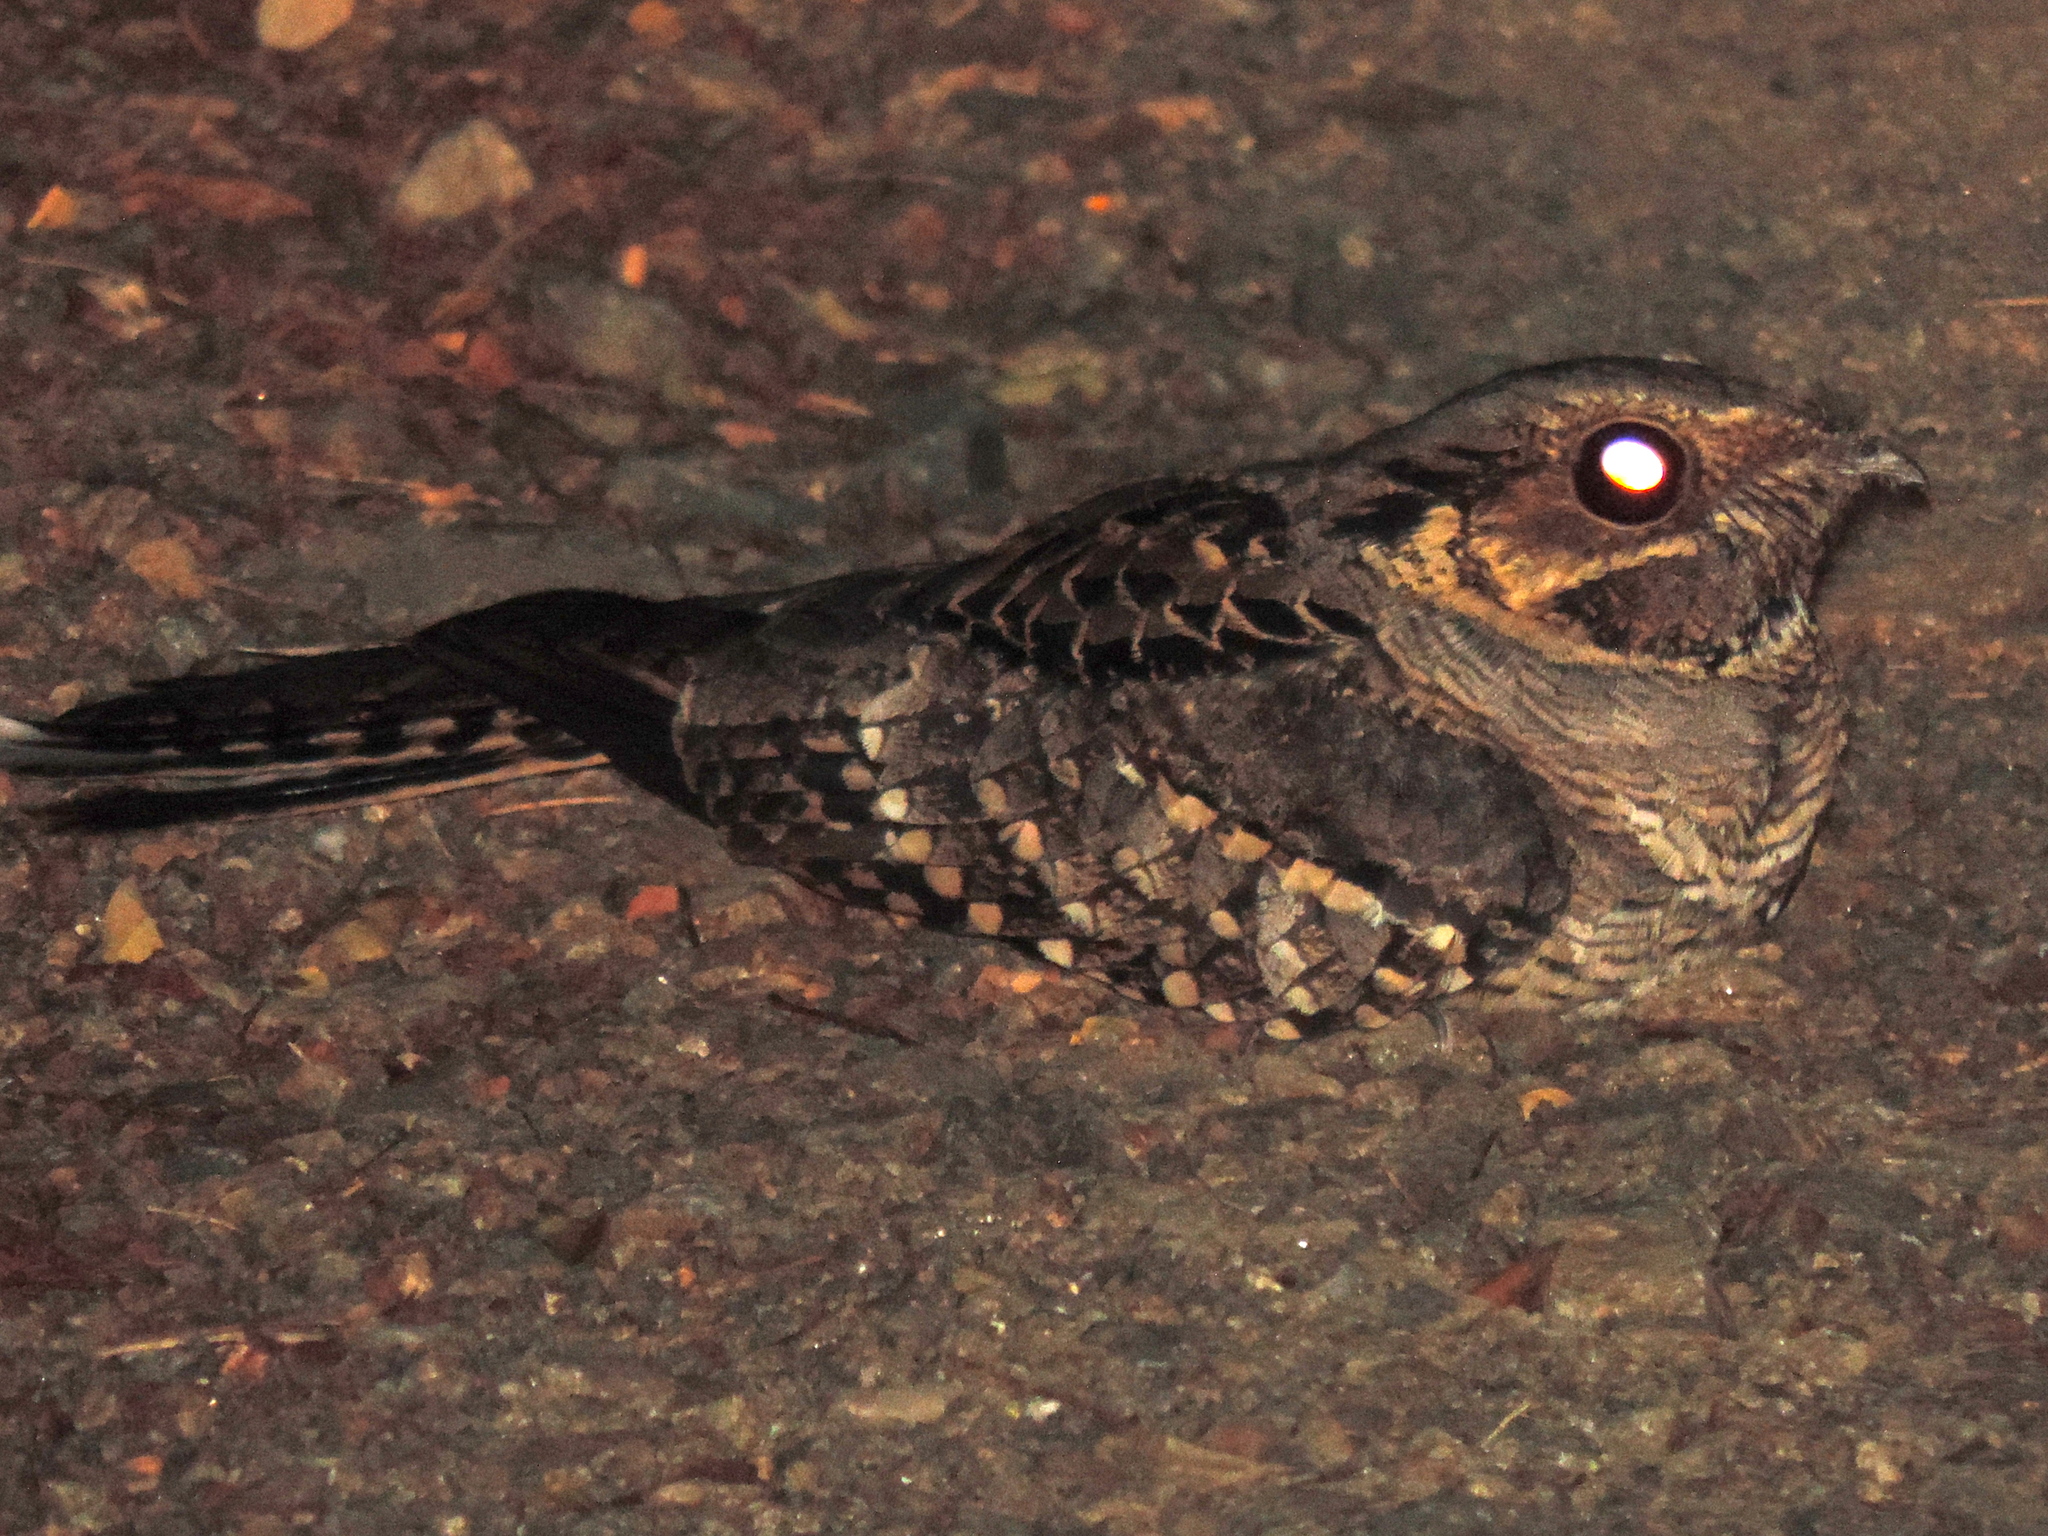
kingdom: Animalia
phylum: Chordata
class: Aves
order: Caprimulgiformes
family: Caprimulgidae
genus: Nyctidromus
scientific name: Nyctidromus albicollis
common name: Pauraque
